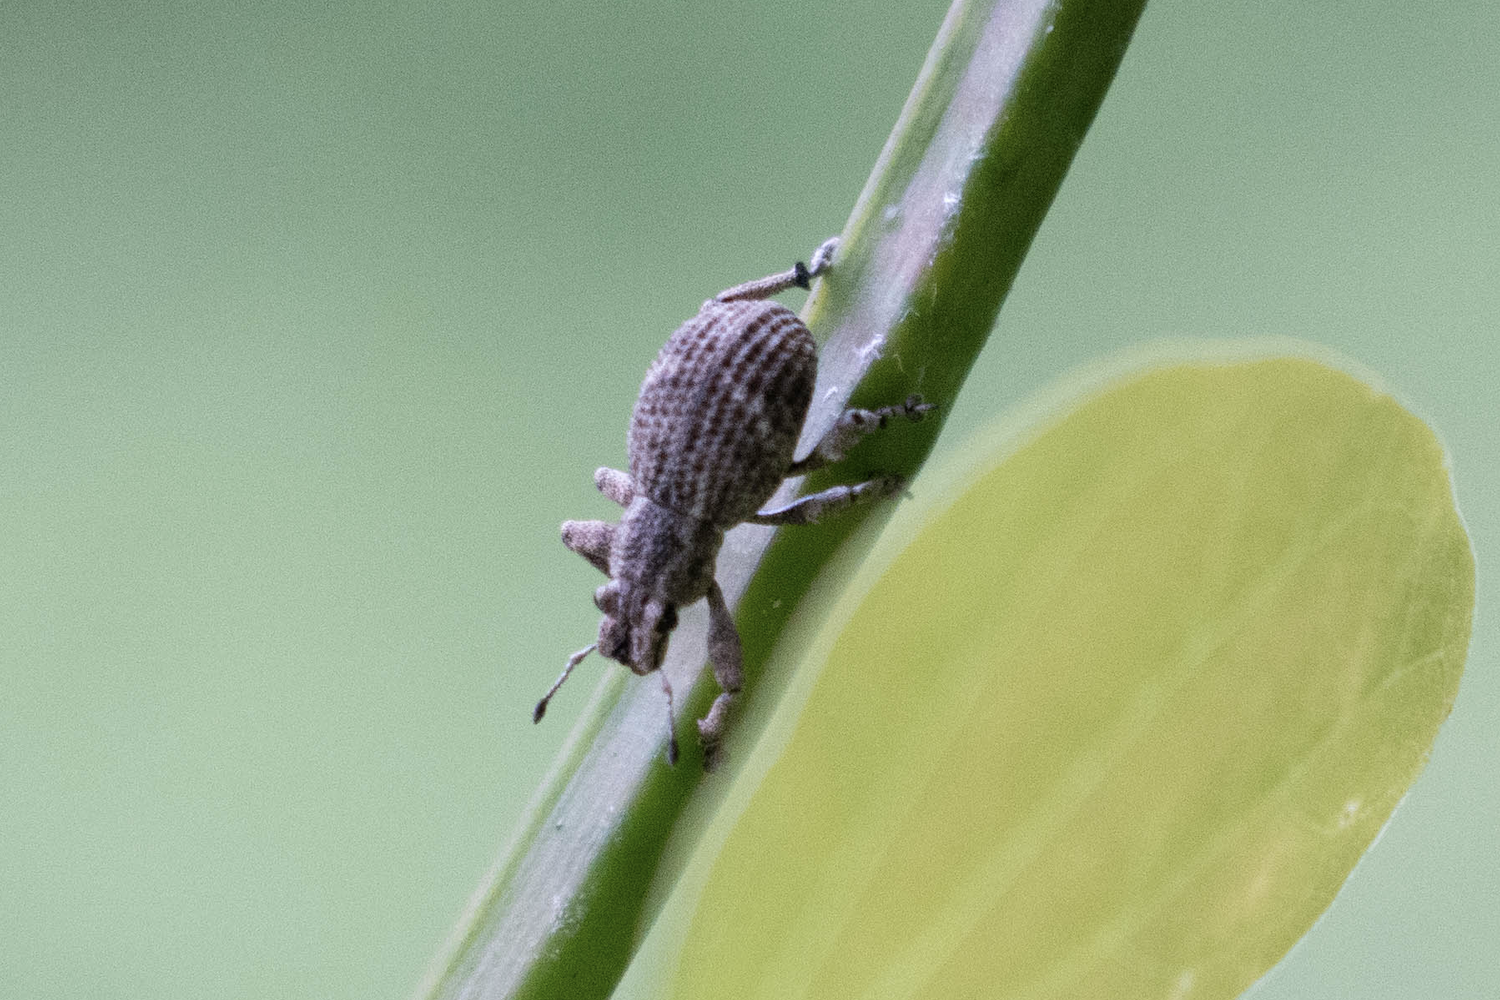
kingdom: Animalia
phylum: Arthropoda
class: Insecta
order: Coleoptera
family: Curculionidae
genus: Blosyrus
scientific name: Blosyrus asellus
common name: Rough sweetpotato weevil
